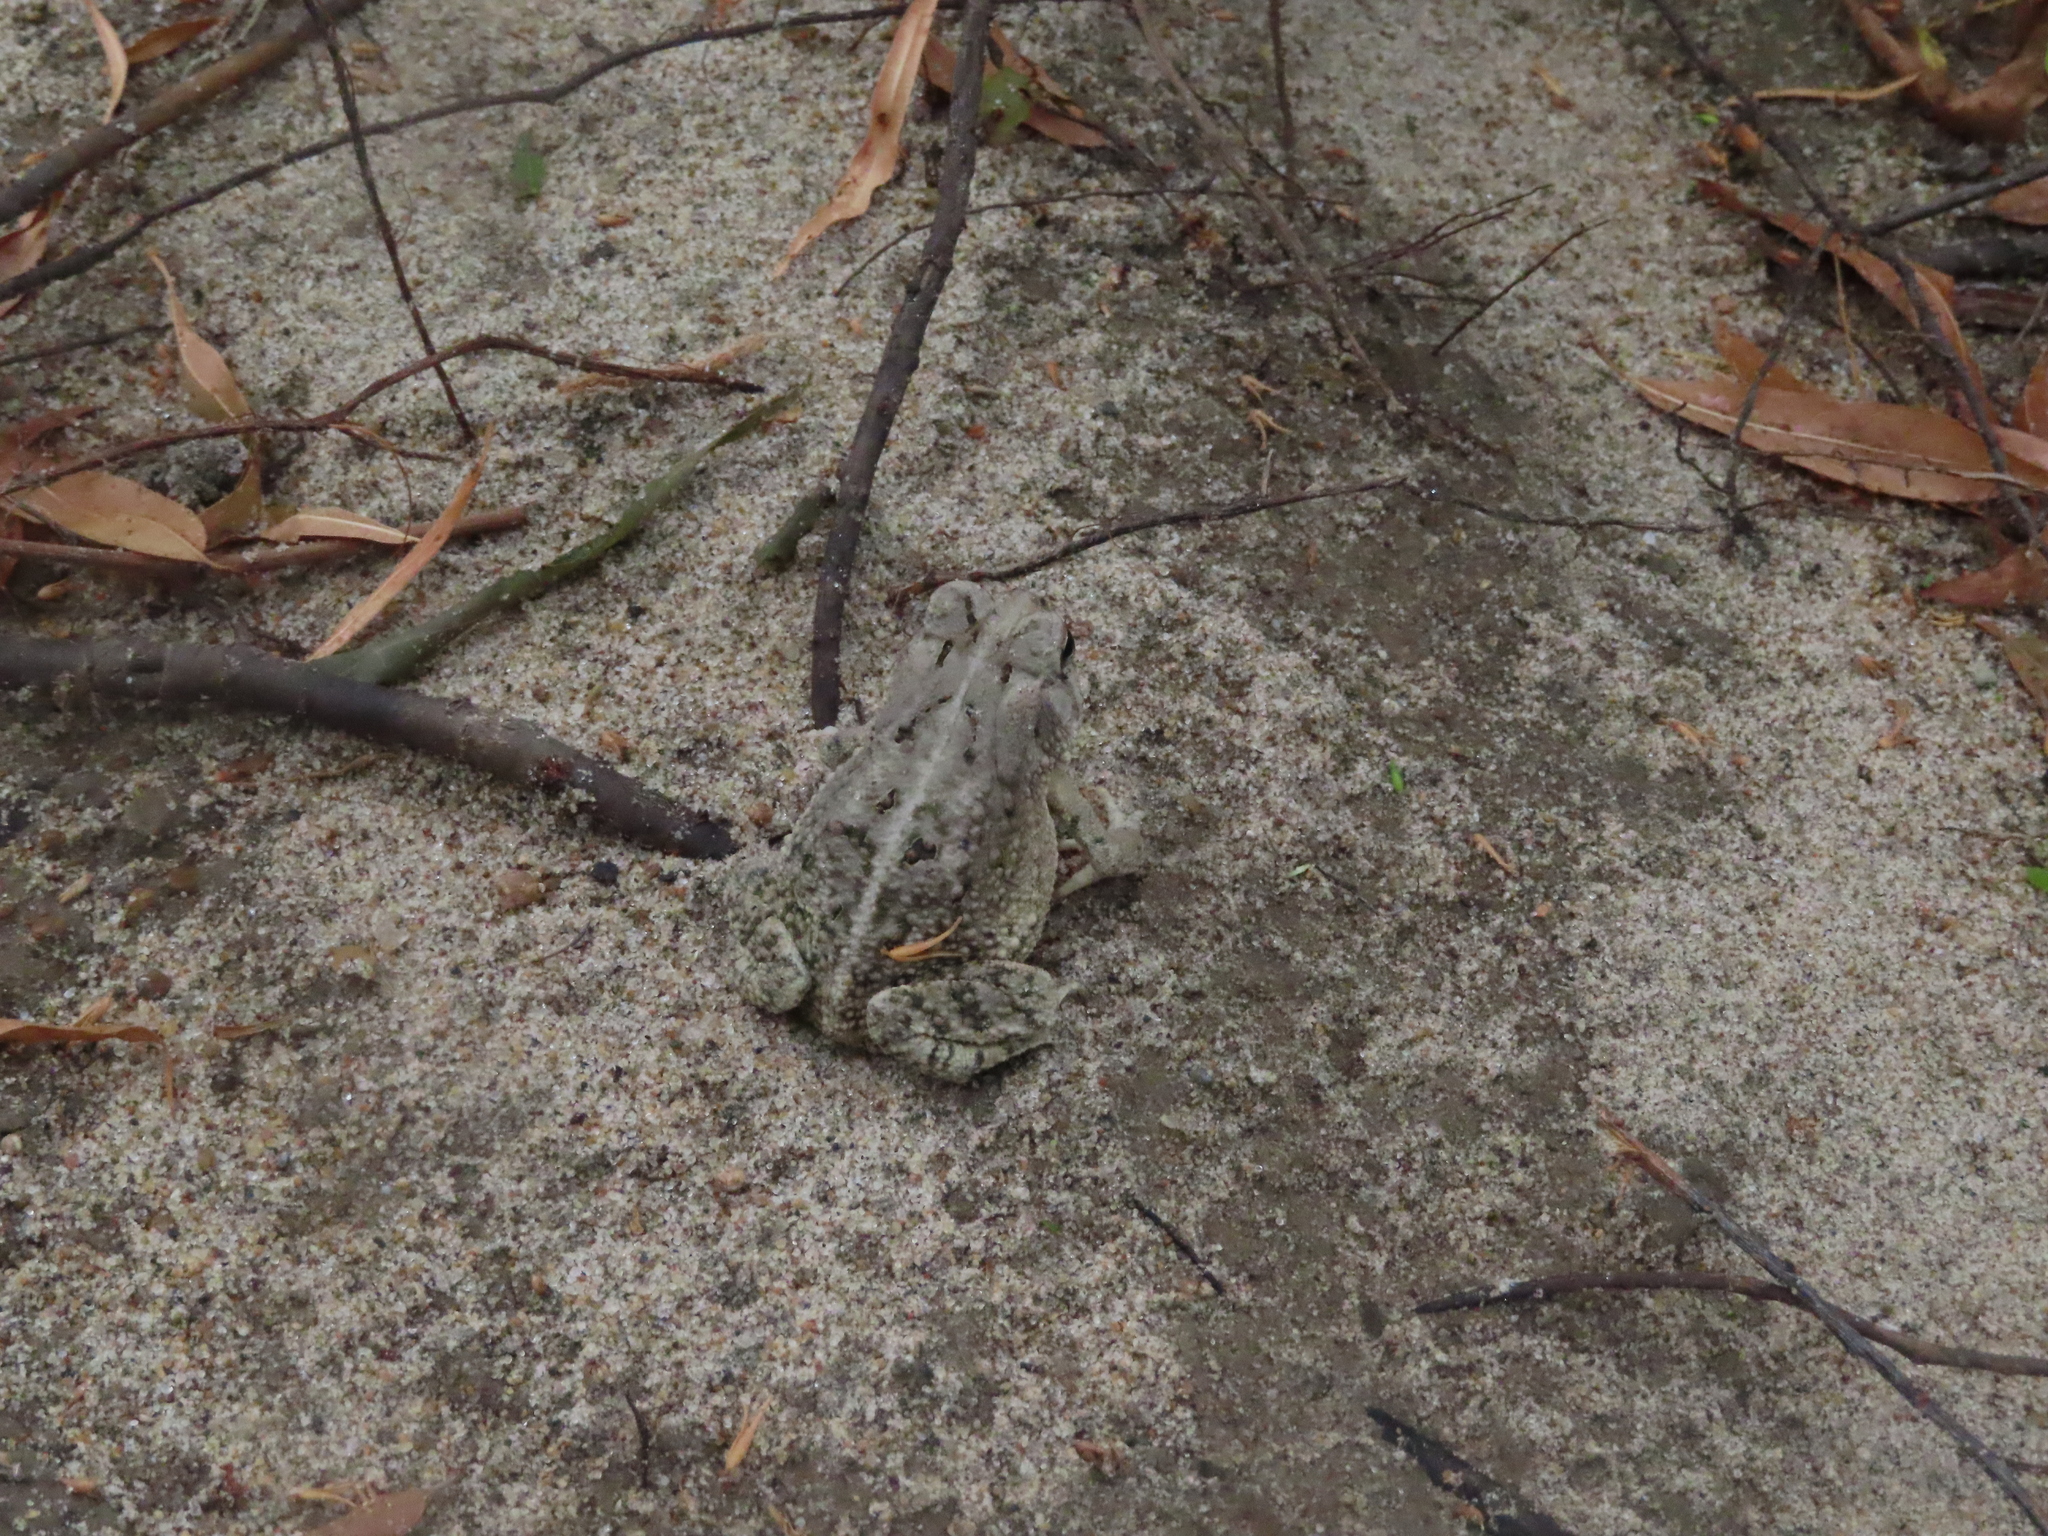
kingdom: Animalia
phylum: Chordata
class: Amphibia
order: Anura
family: Bufonidae
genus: Anaxyrus
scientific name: Anaxyrus fowleri
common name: Fowler's toad
